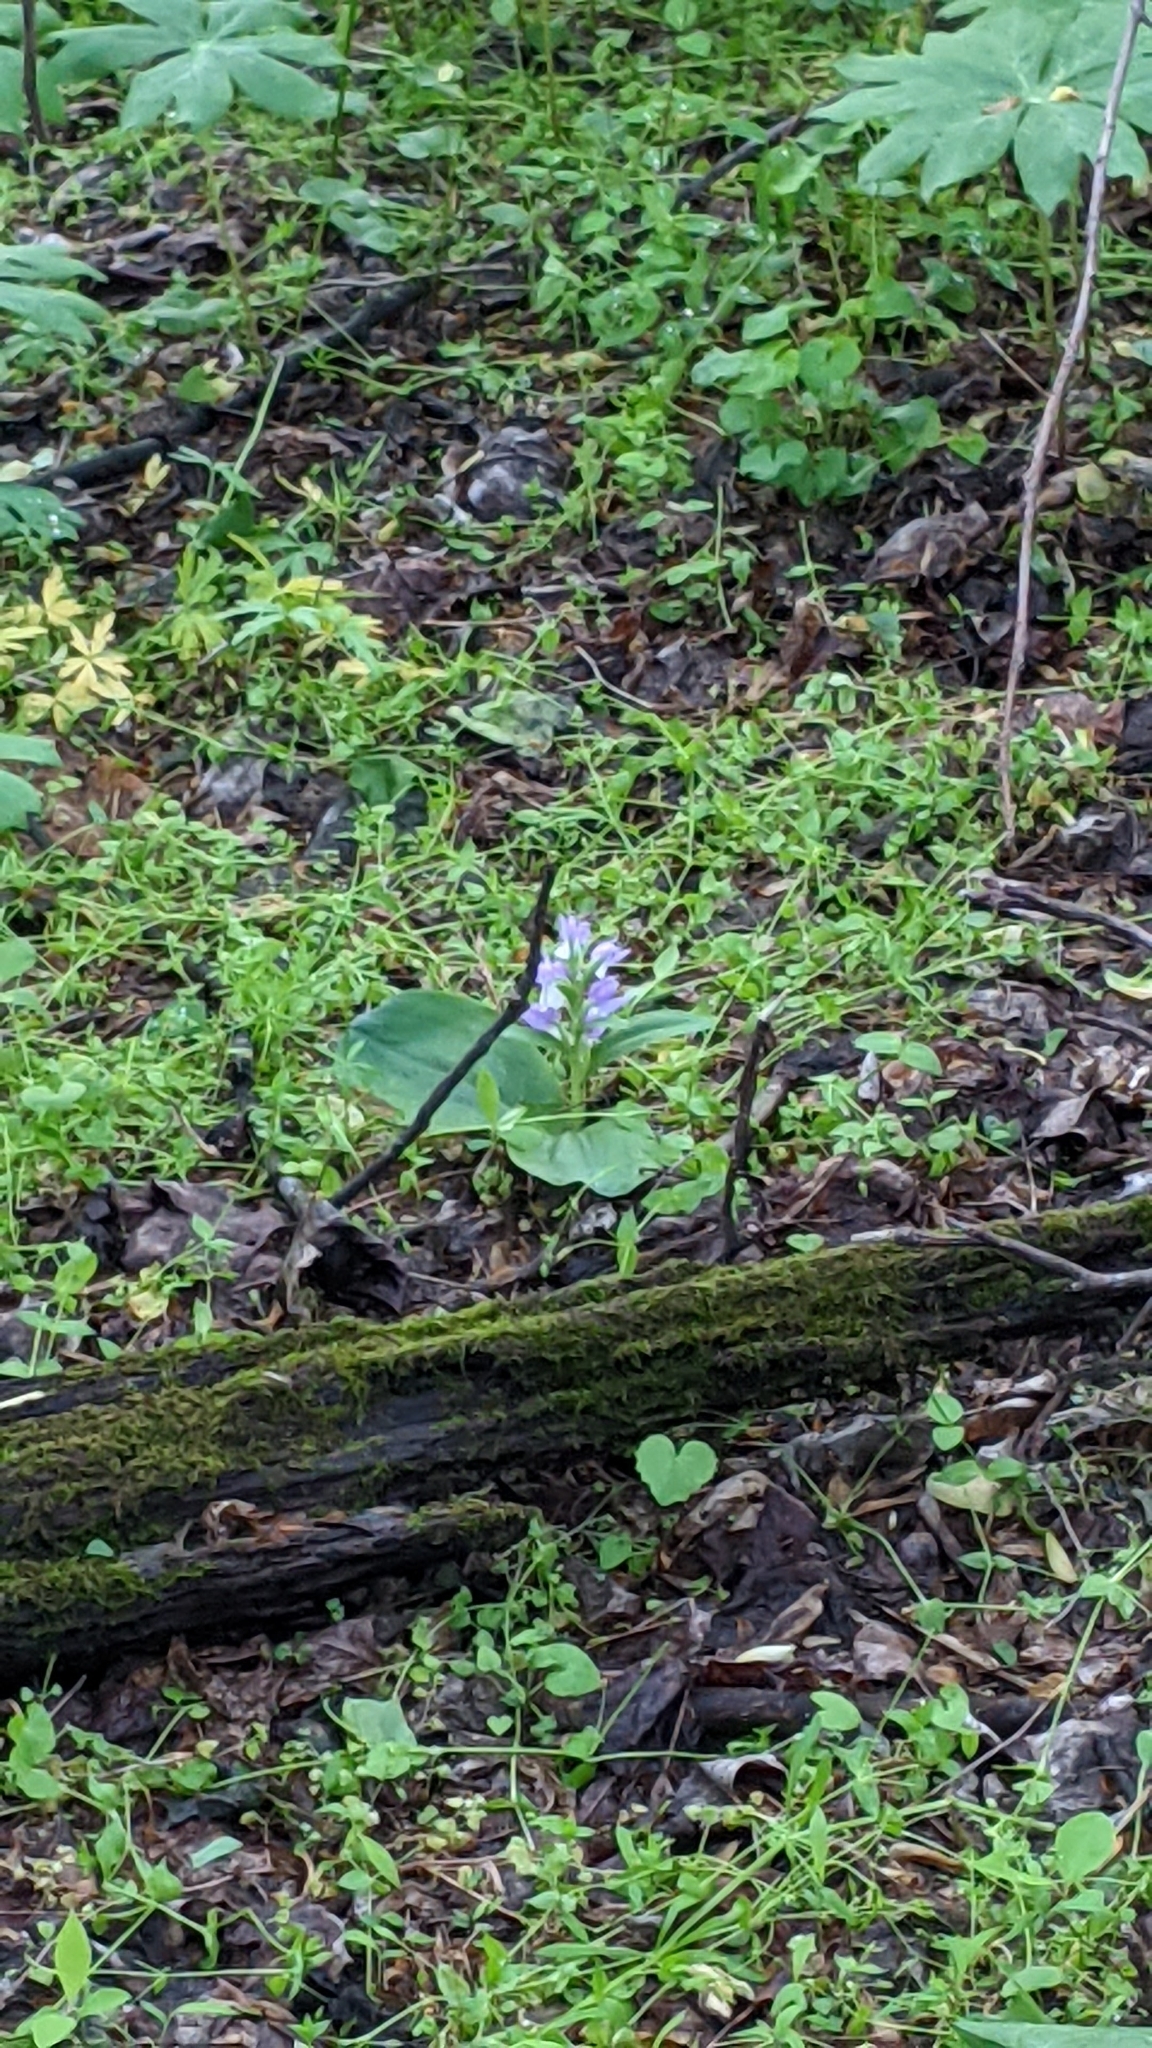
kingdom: Plantae
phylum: Tracheophyta
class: Liliopsida
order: Asparagales
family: Orchidaceae
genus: Galearis
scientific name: Galearis spectabilis
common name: Purple-hooded orchis
